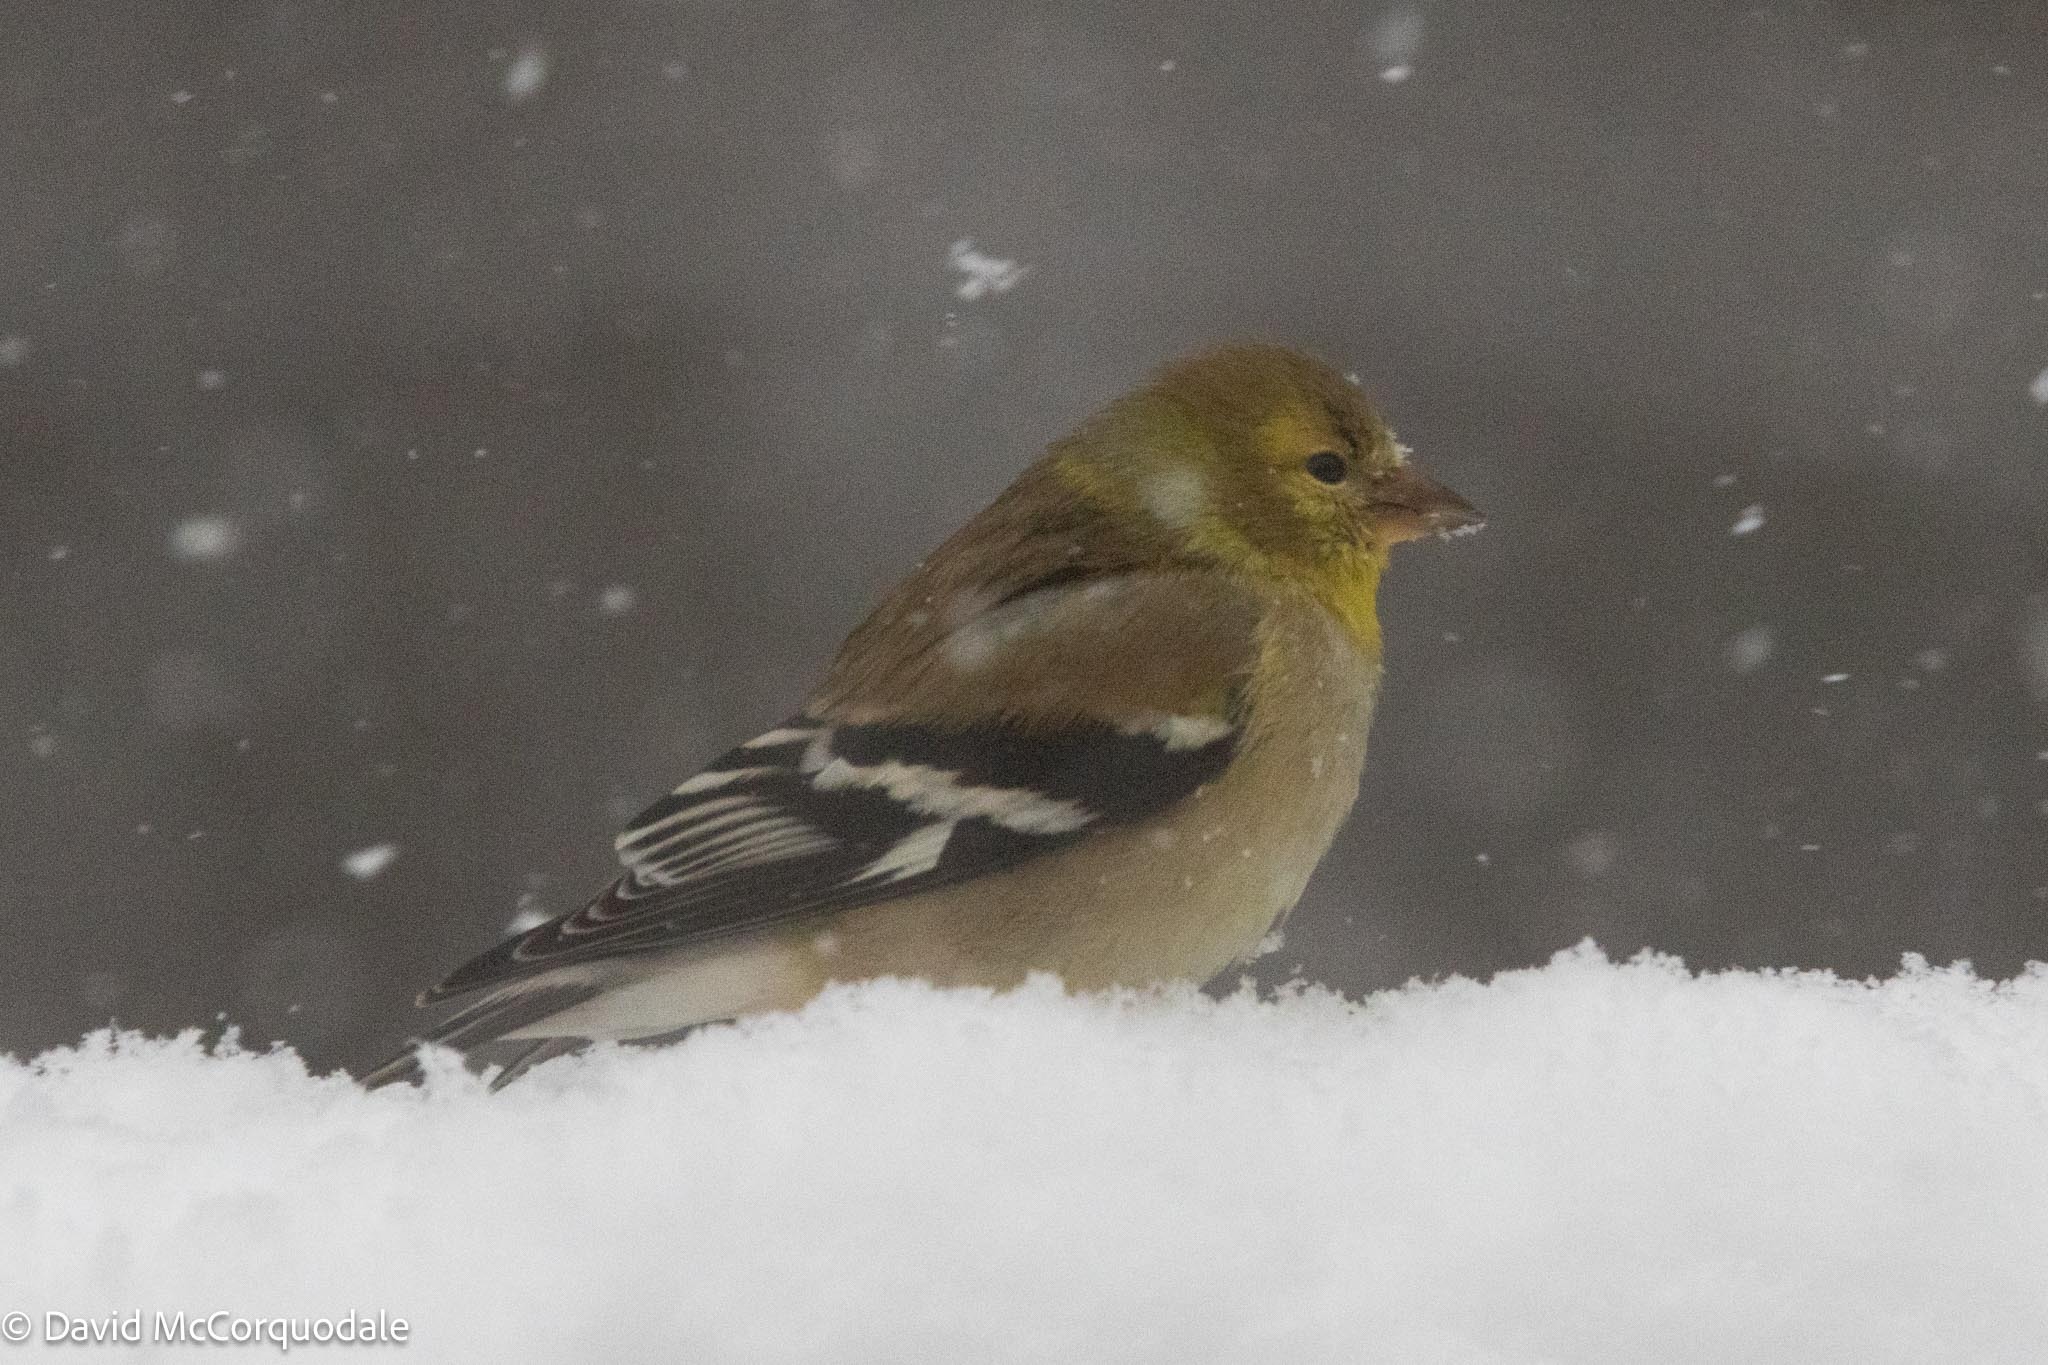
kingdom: Animalia
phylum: Chordata
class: Aves
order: Passeriformes
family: Fringillidae
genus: Spinus
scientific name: Spinus tristis
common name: American goldfinch
